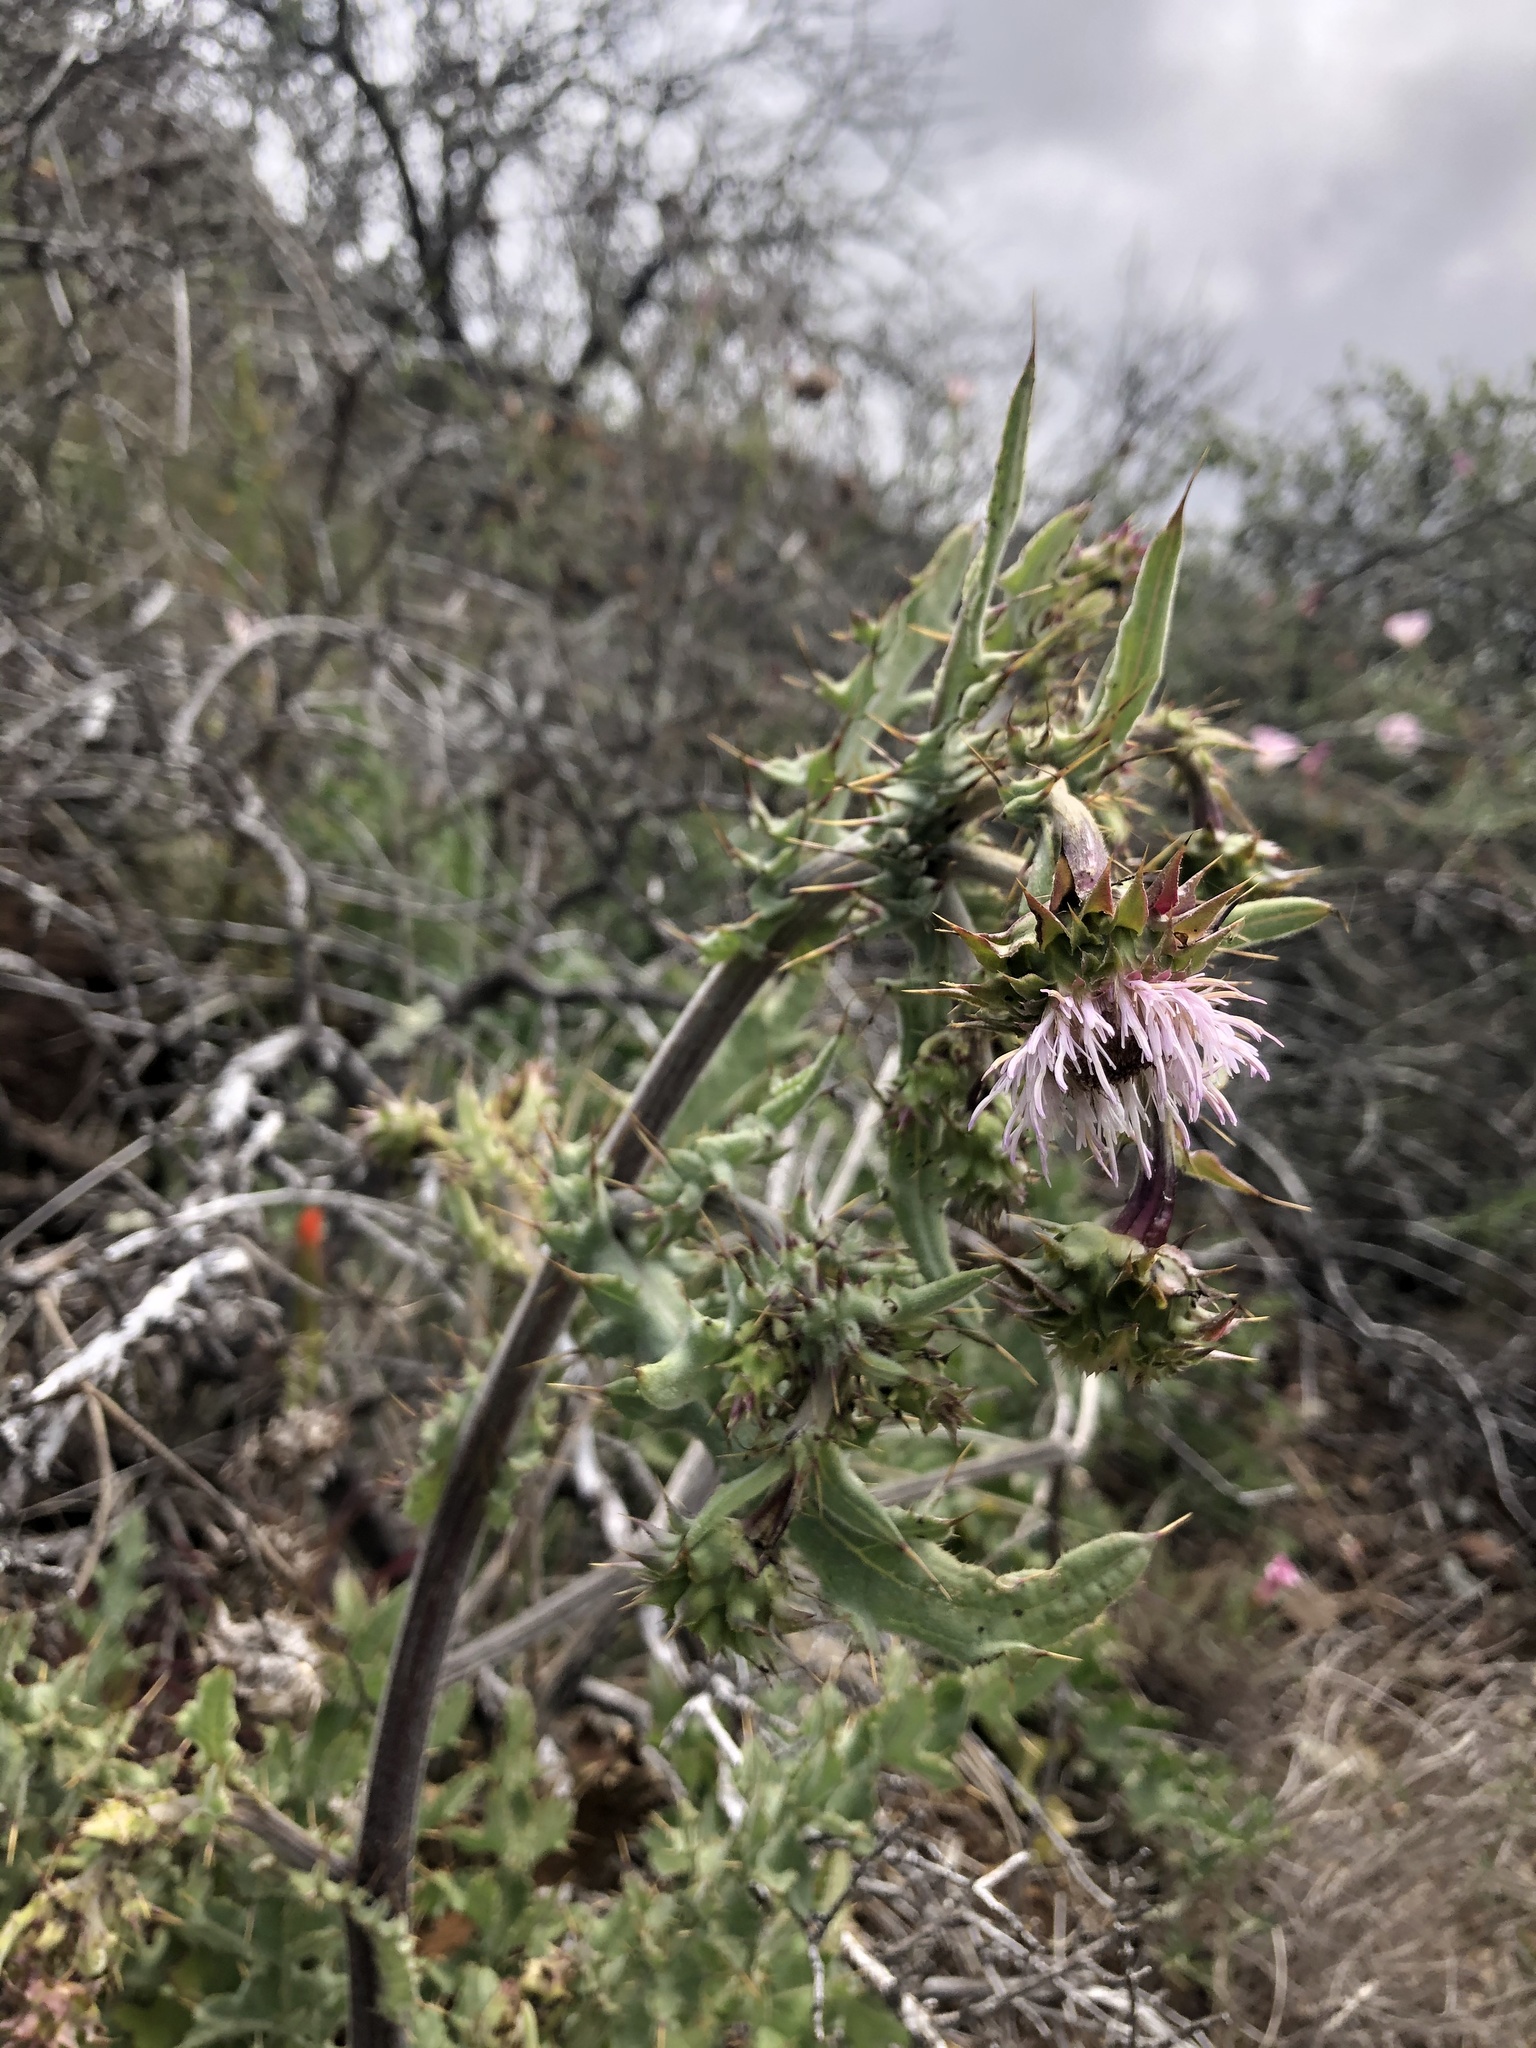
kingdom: Plantae
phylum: Tracheophyta
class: Magnoliopsida
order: Asterales
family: Asteraceae
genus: Cirsium
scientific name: Cirsium fontinale
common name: Fountain thistle
